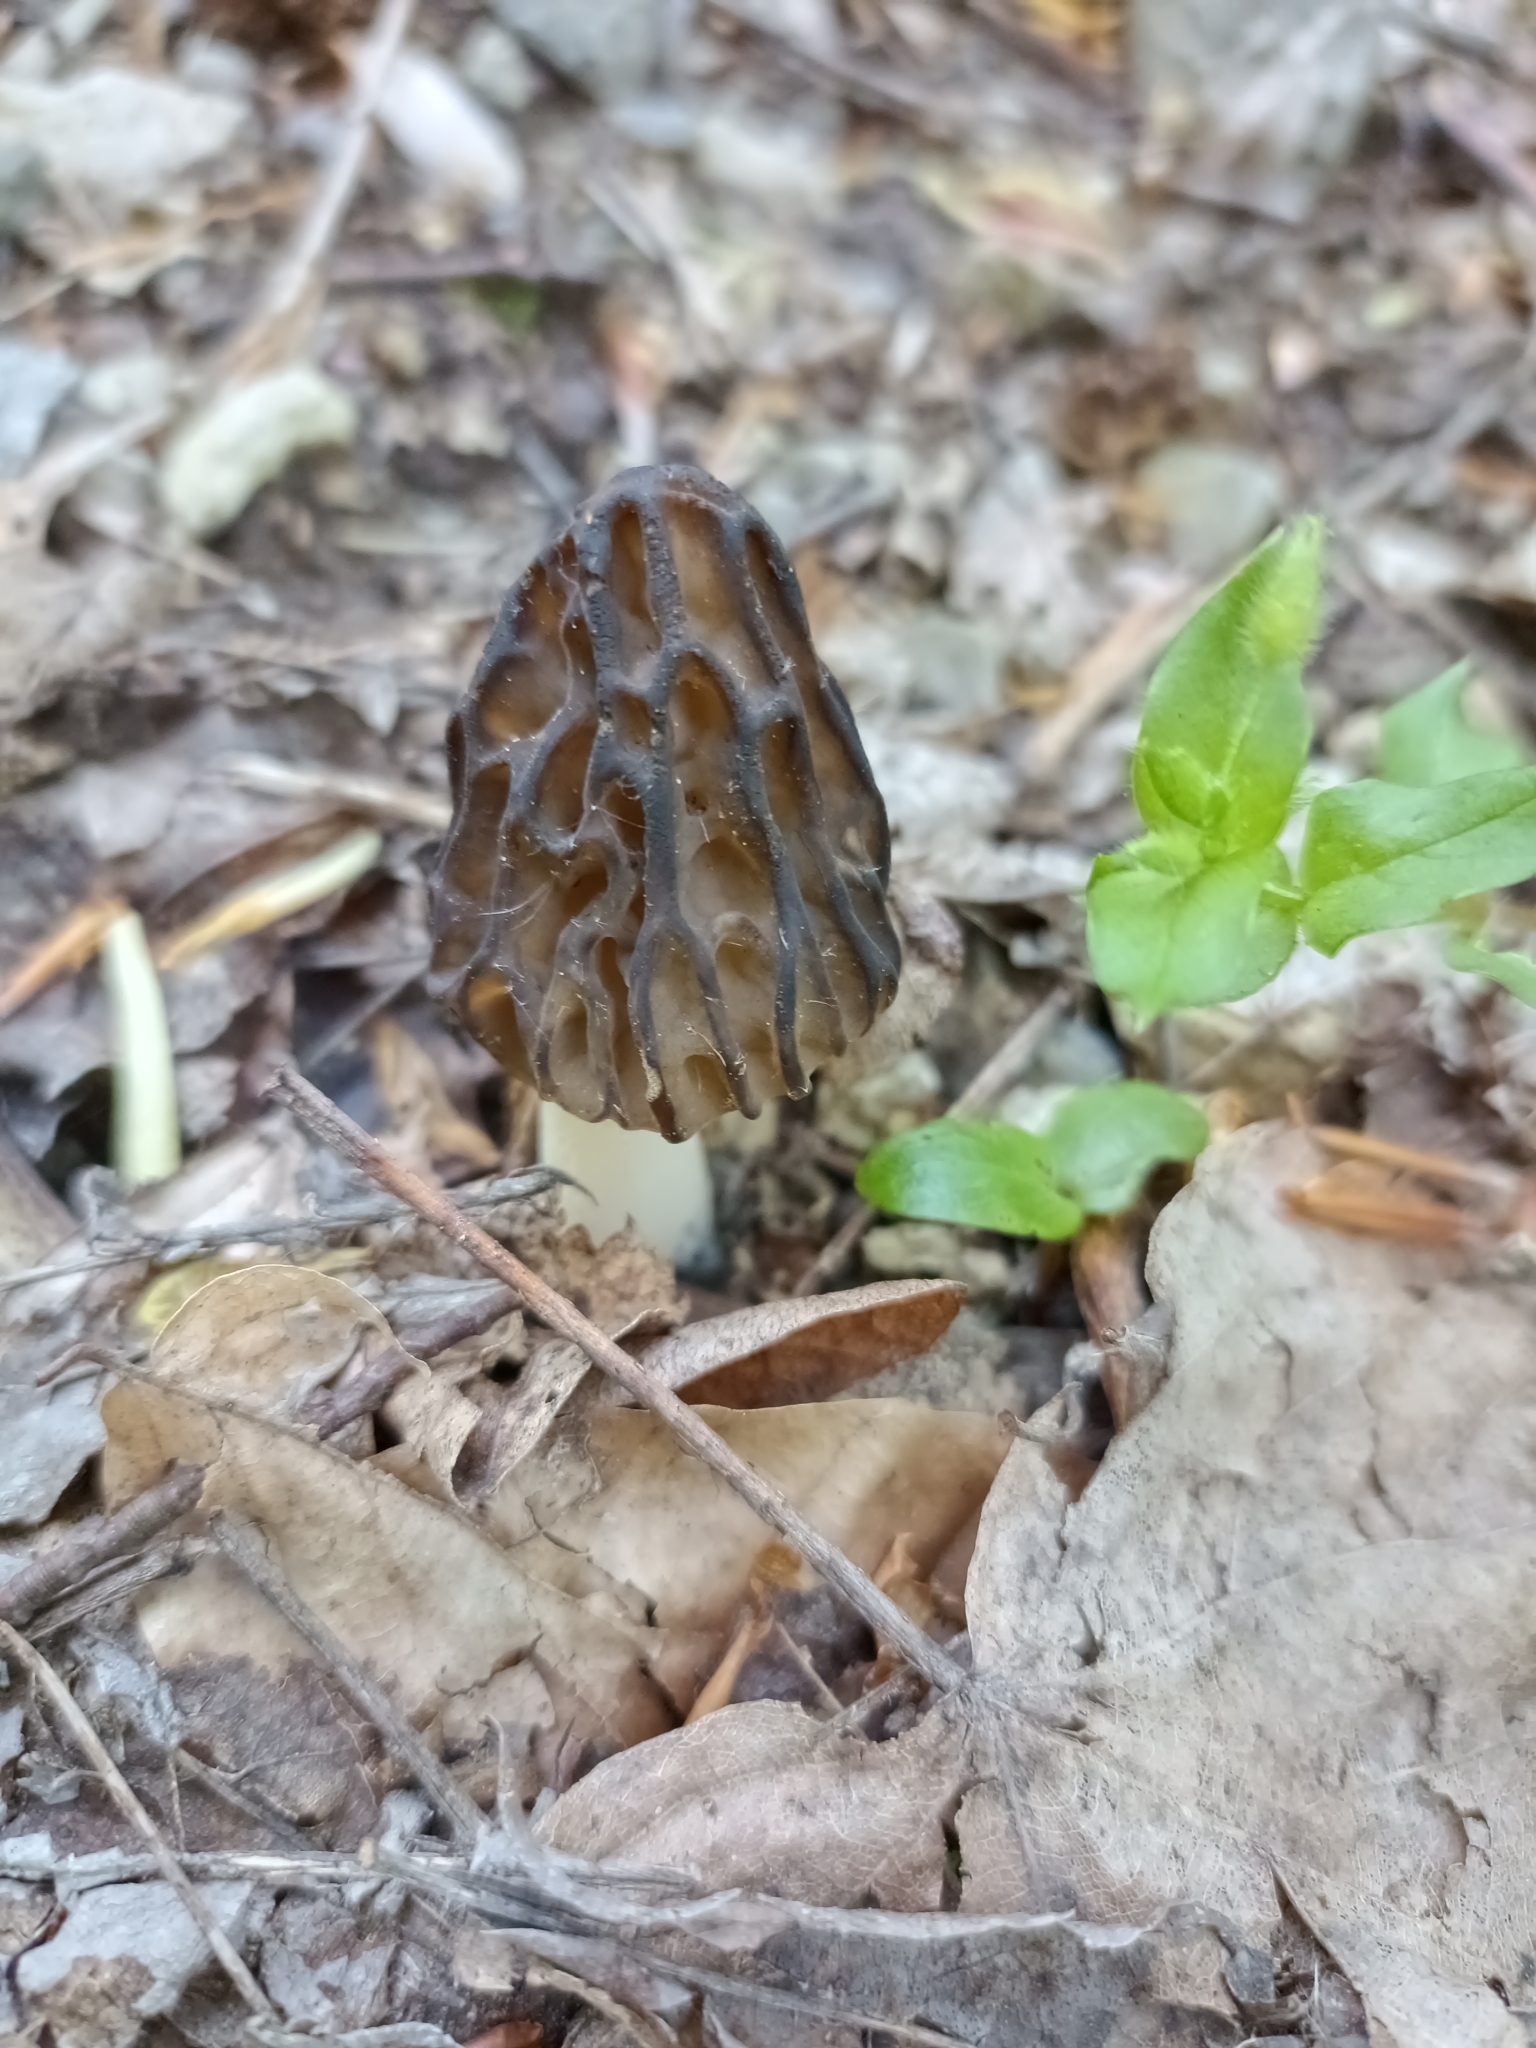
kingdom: Fungi
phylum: Ascomycota
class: Pezizomycetes
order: Pezizales
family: Morchellaceae
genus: Morchella
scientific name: Morchella semilibera
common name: Semifree morel
